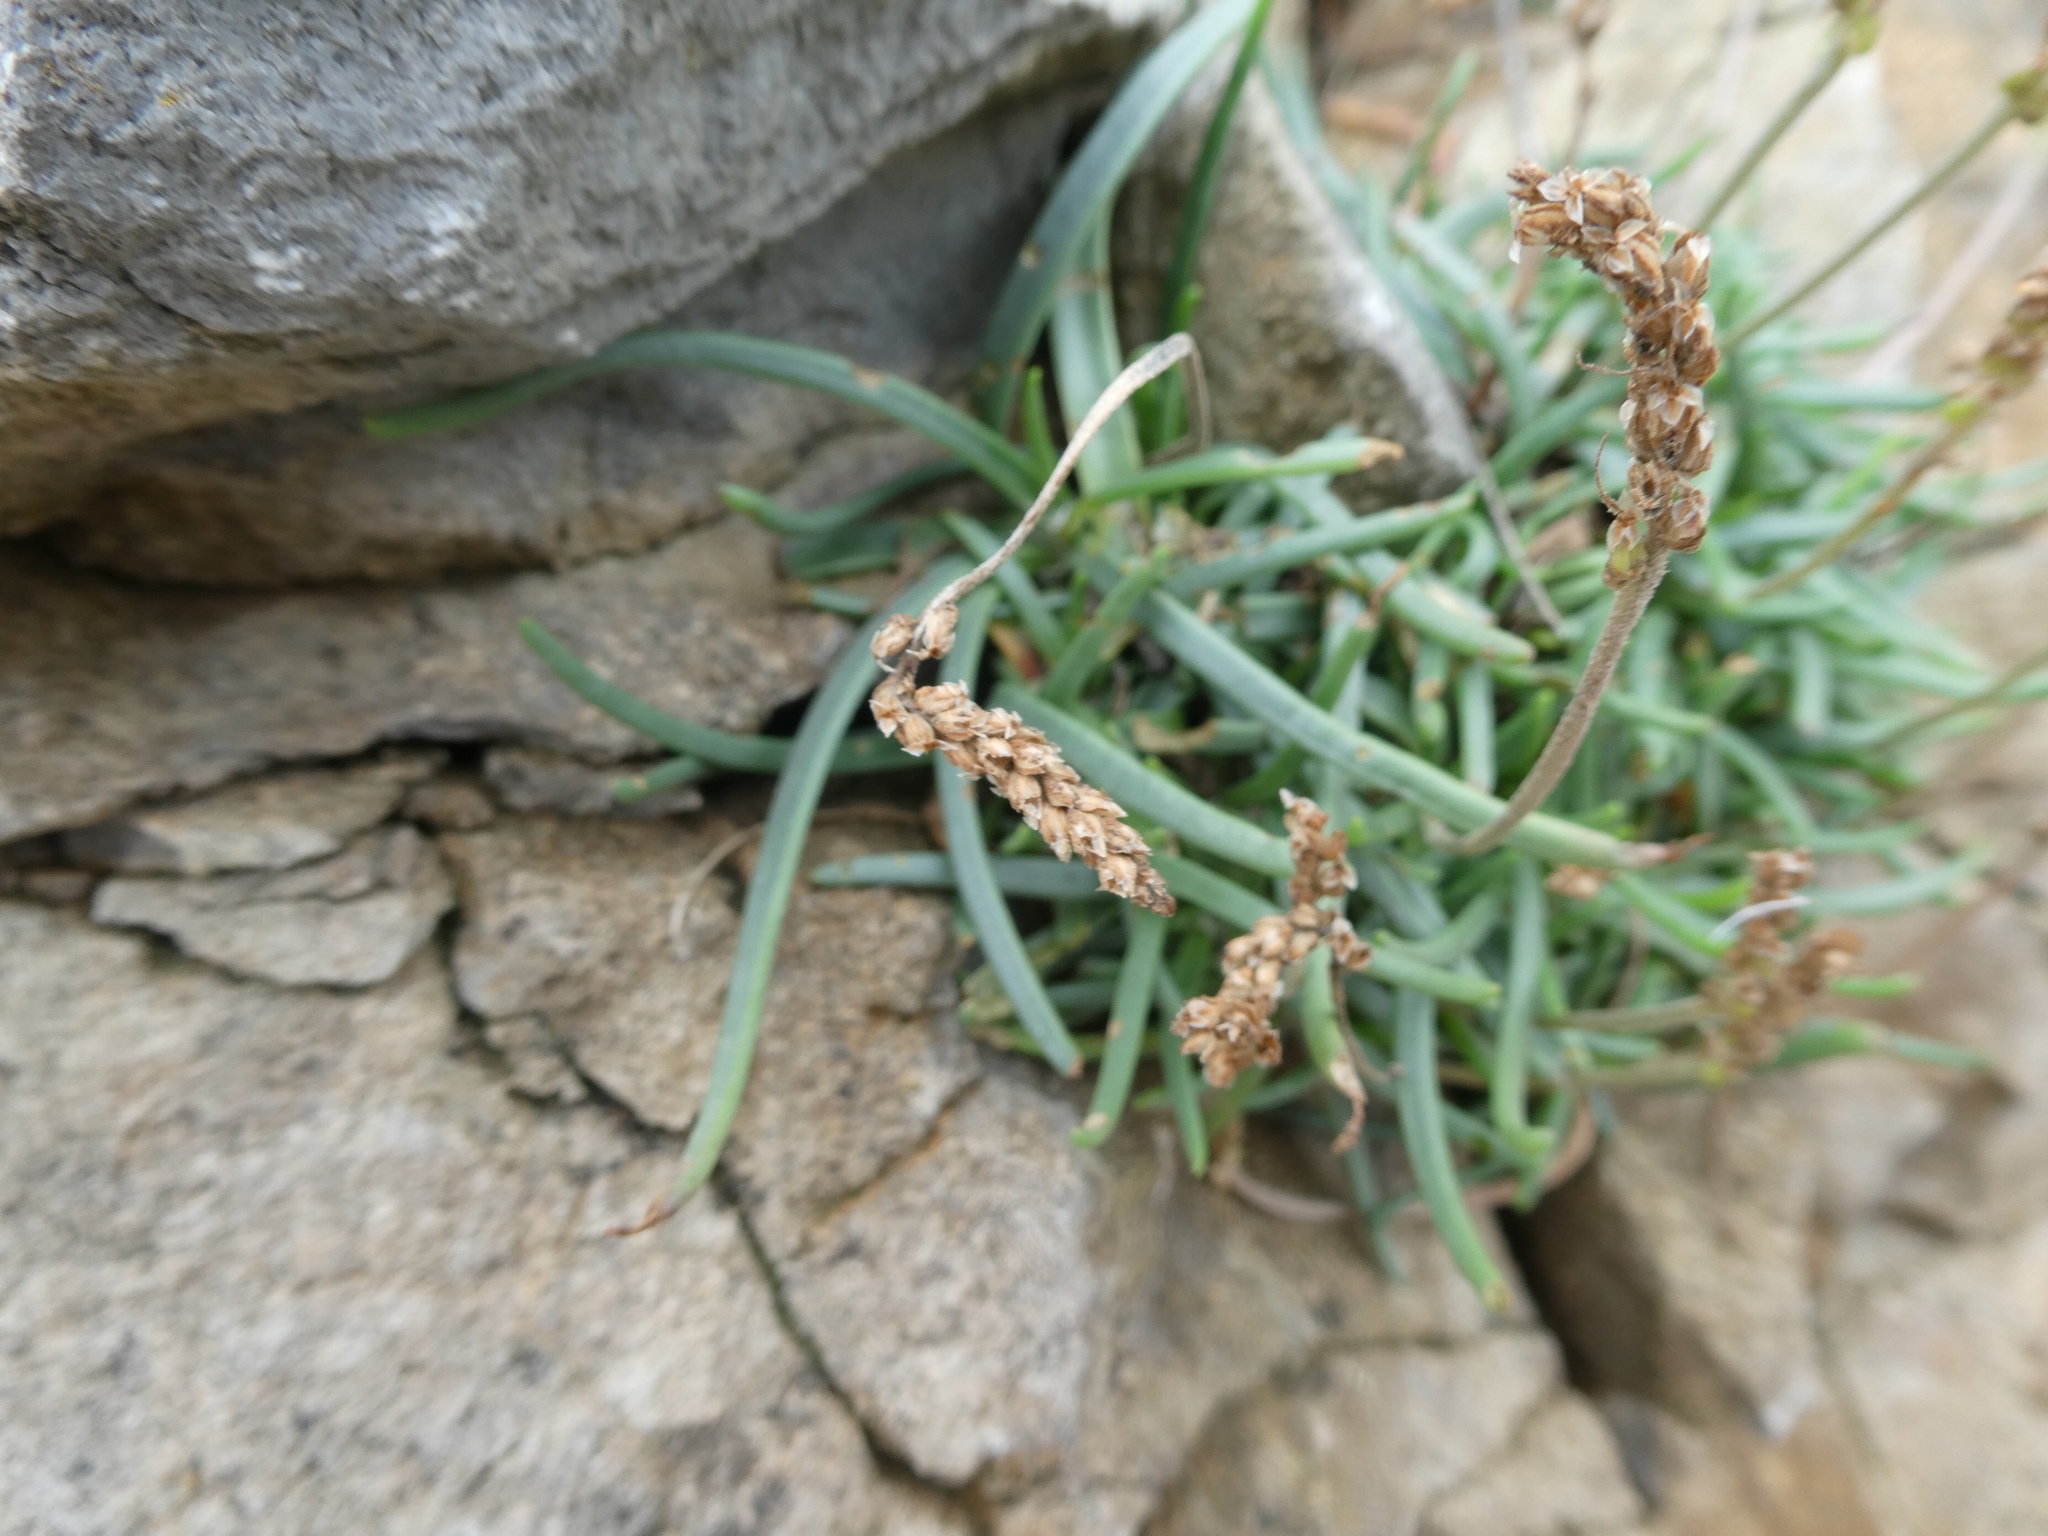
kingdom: Plantae
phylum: Tracheophyta
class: Magnoliopsida
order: Lamiales
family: Plantaginaceae
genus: Plantago
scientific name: Plantago maritima
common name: Sea plantain
